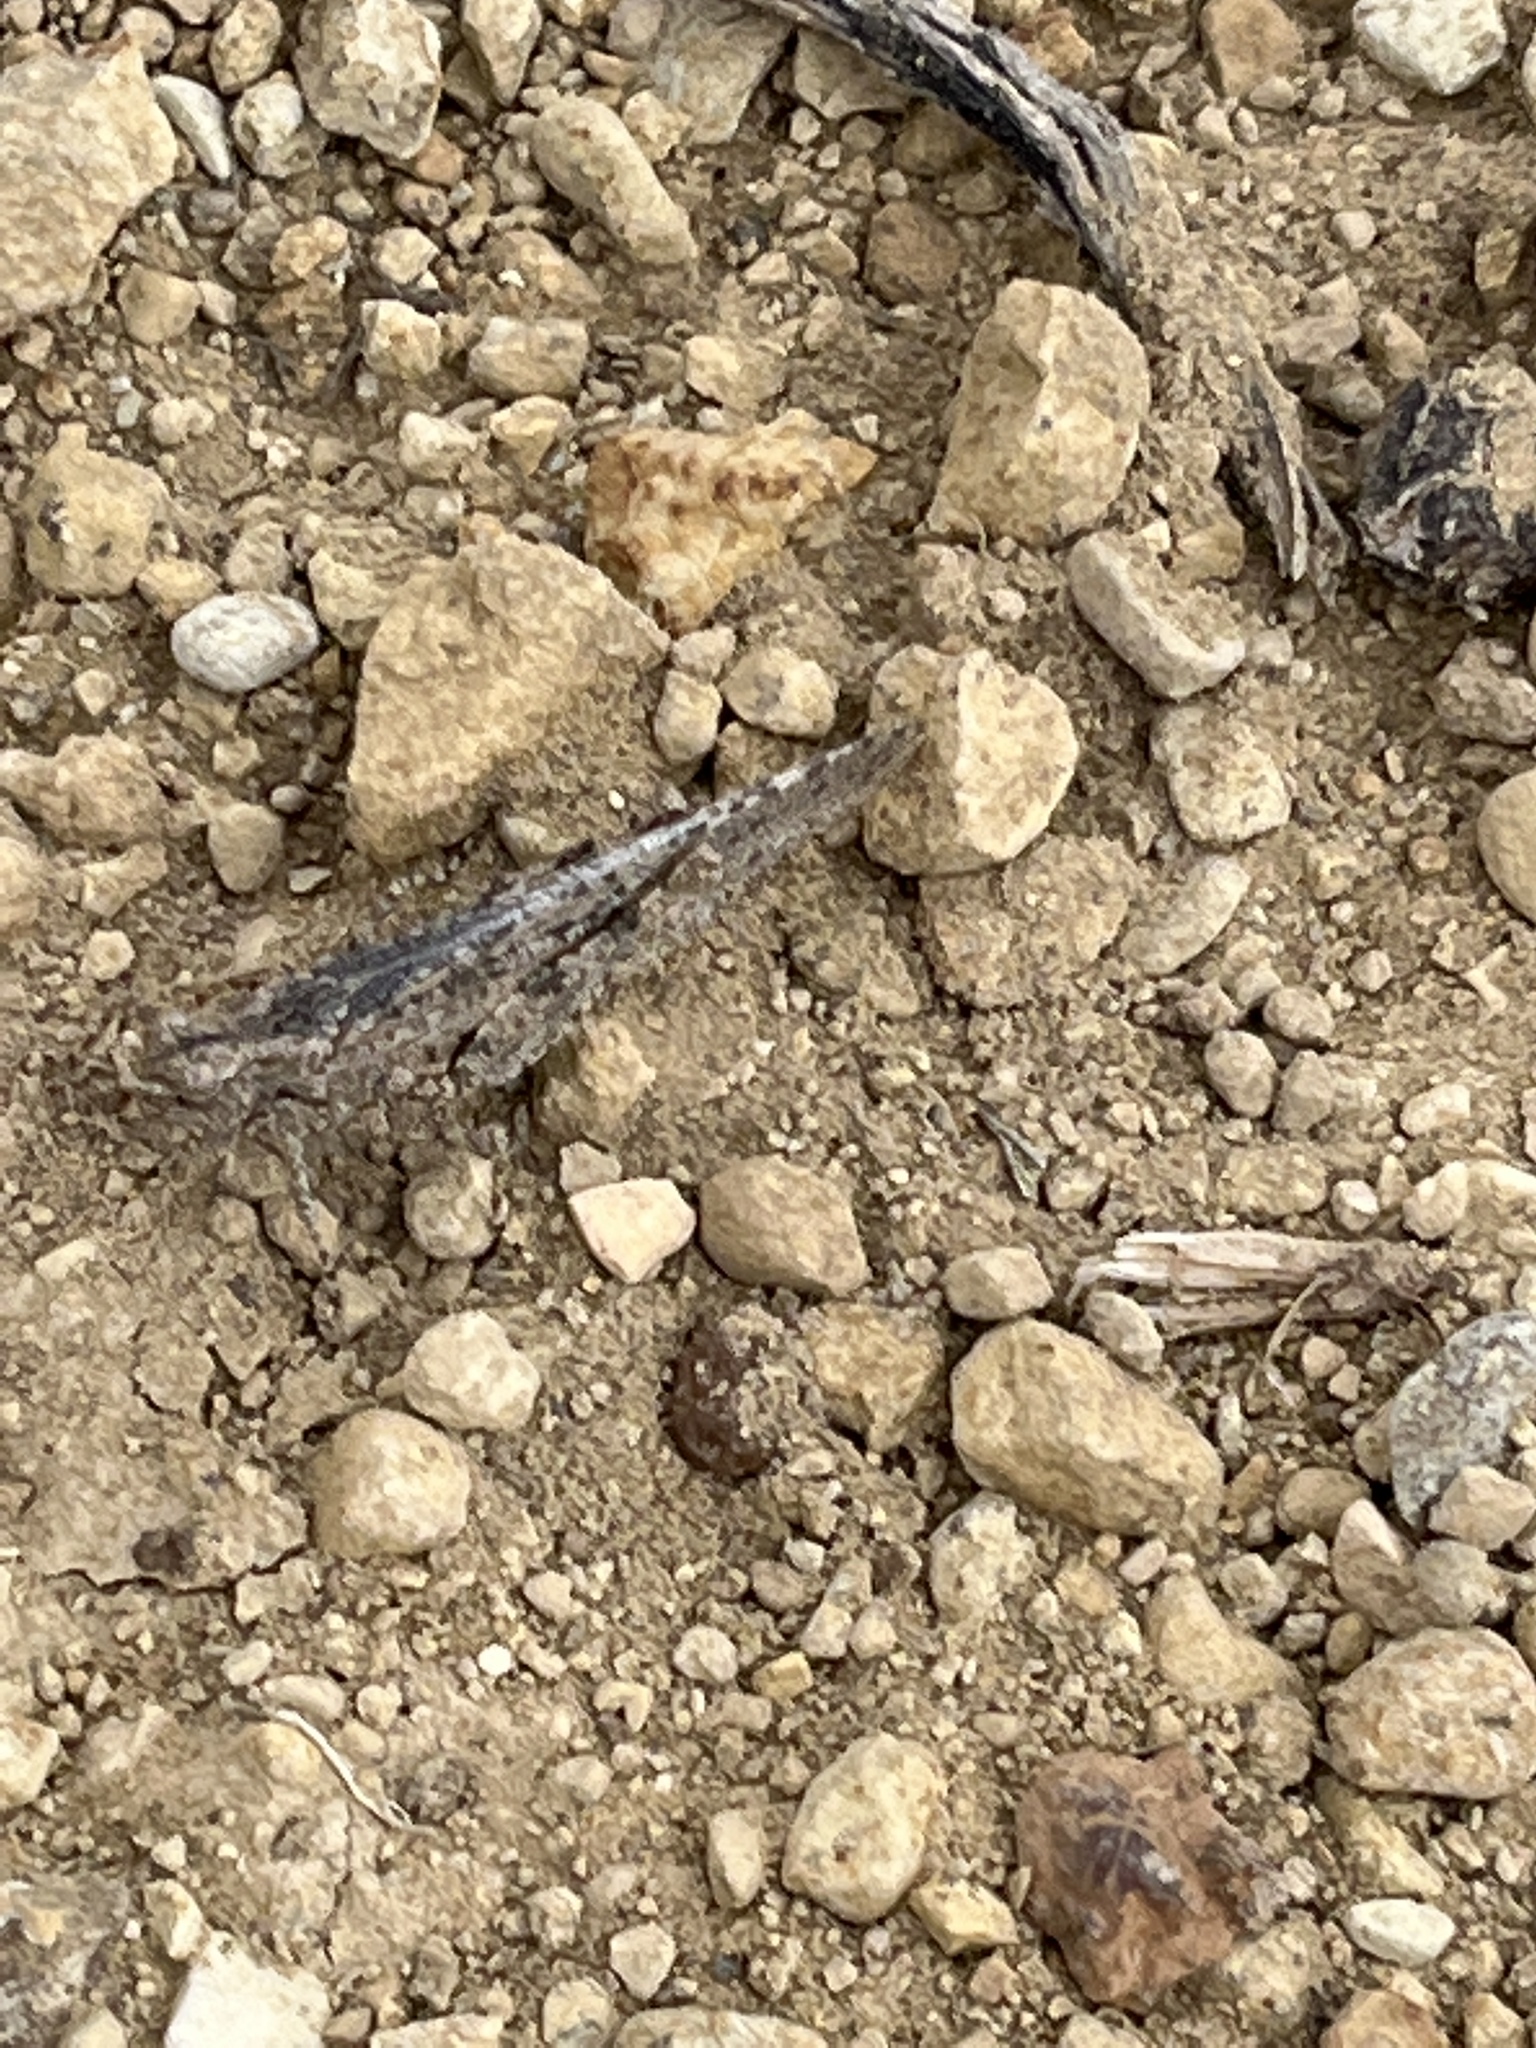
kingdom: Animalia
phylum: Arthropoda
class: Insecta
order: Orthoptera
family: Acrididae
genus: Trimerotropis
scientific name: Trimerotropis gracilis
